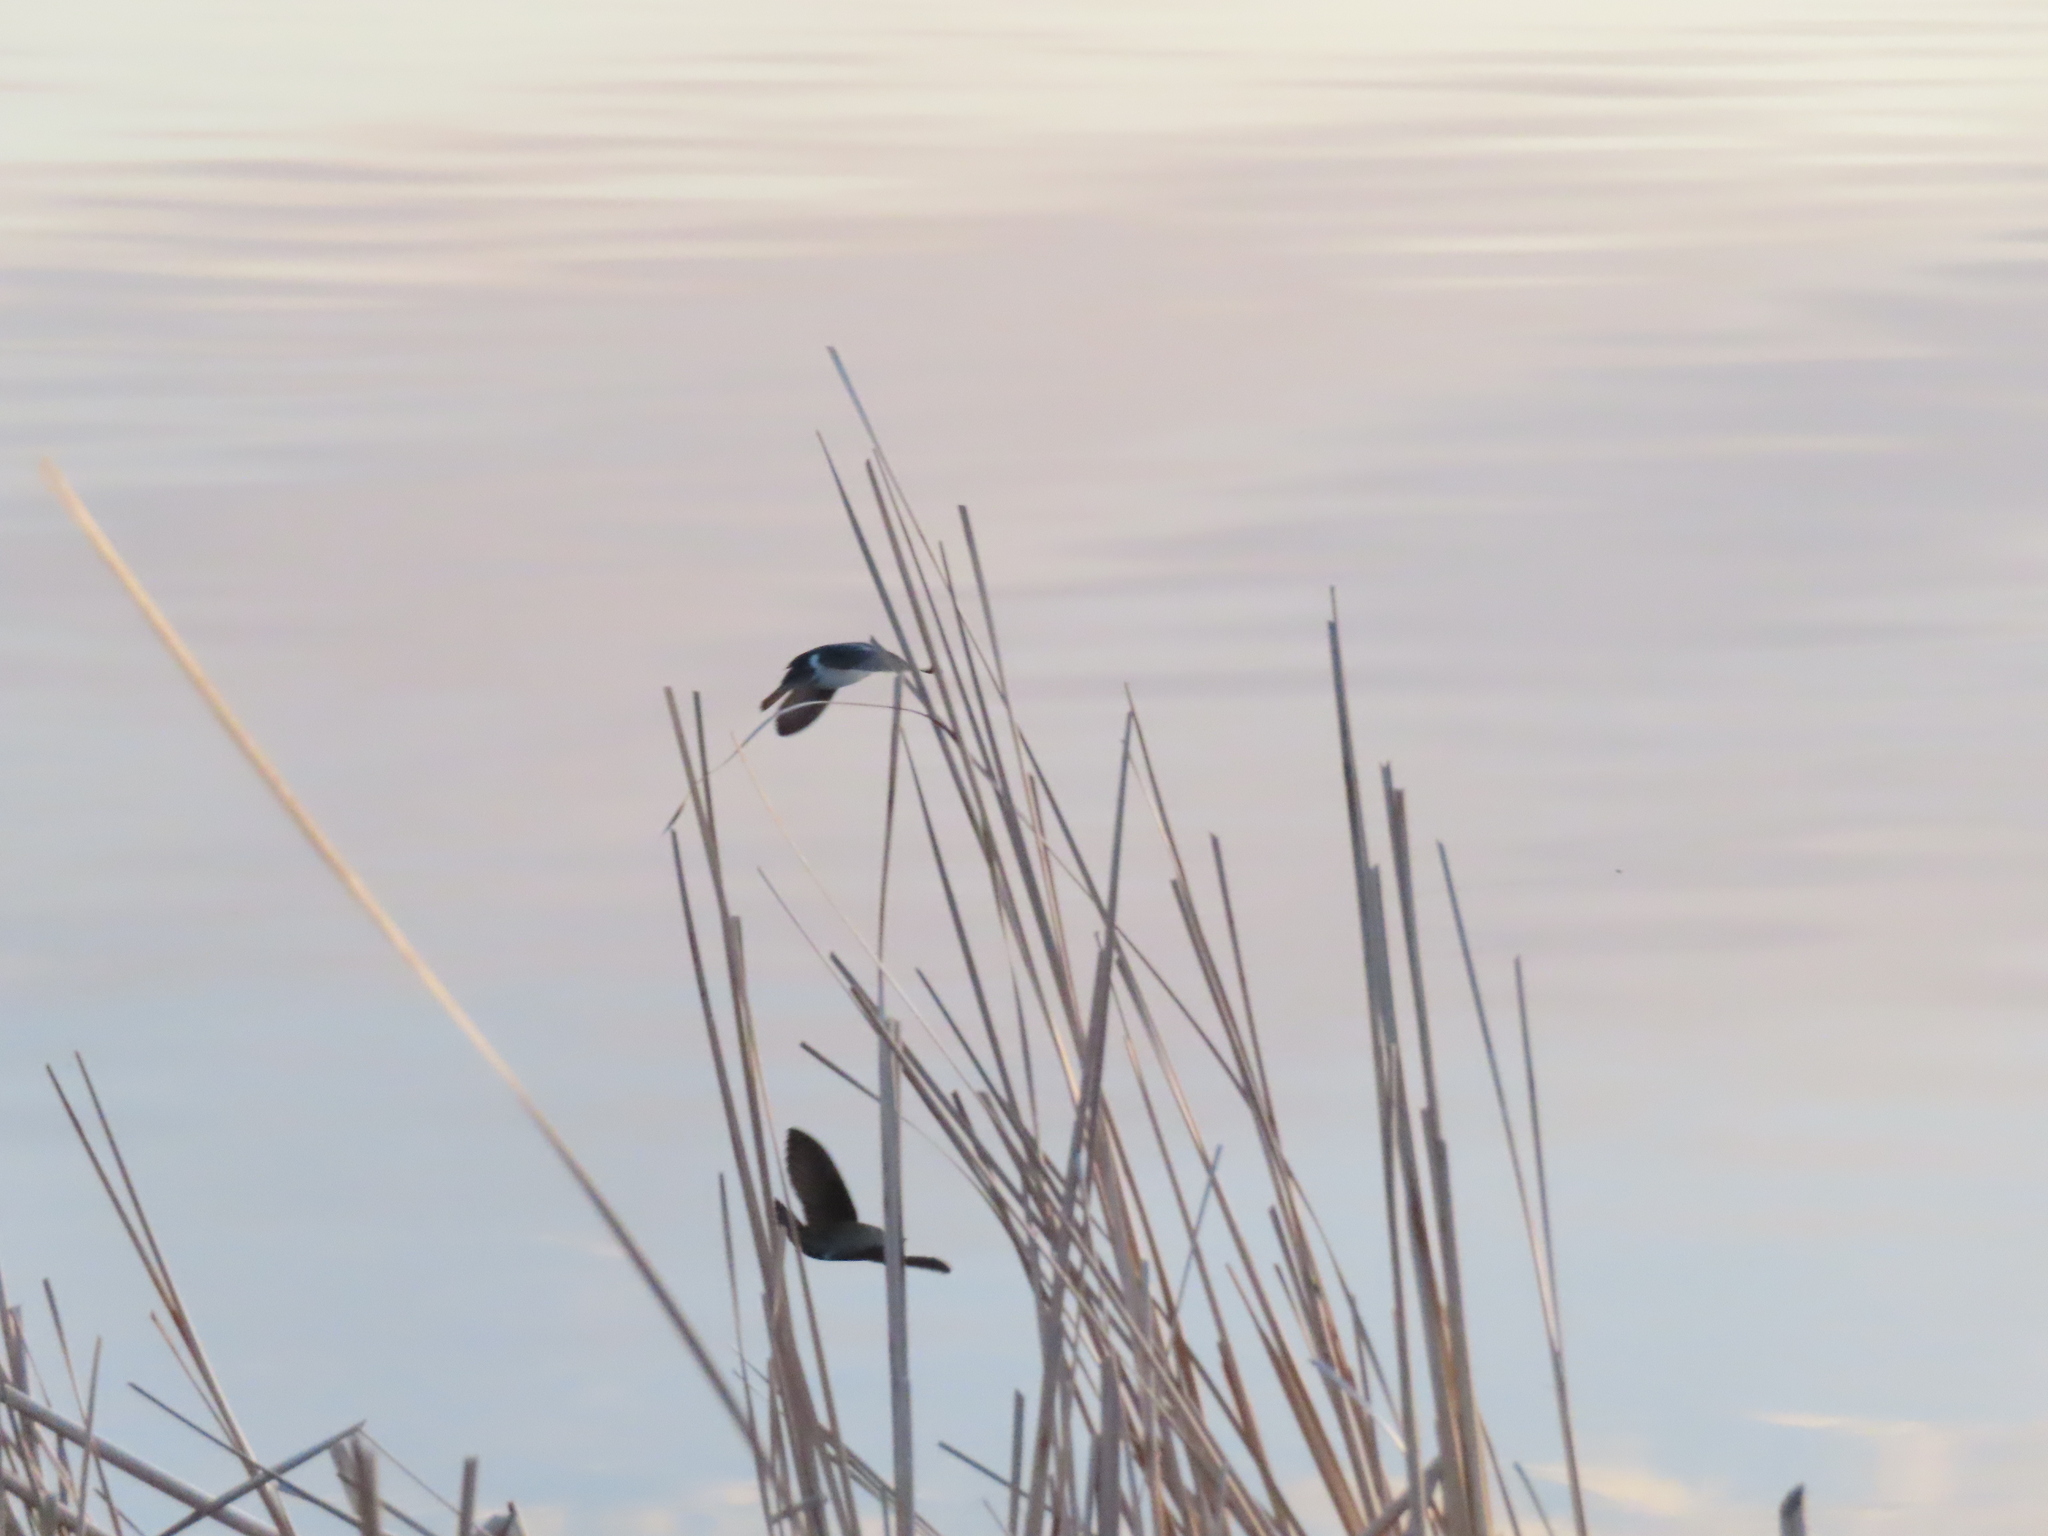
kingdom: Animalia
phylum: Chordata
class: Aves
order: Passeriformes
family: Hirundinidae
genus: Tachycineta
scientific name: Tachycineta bicolor
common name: Tree swallow
